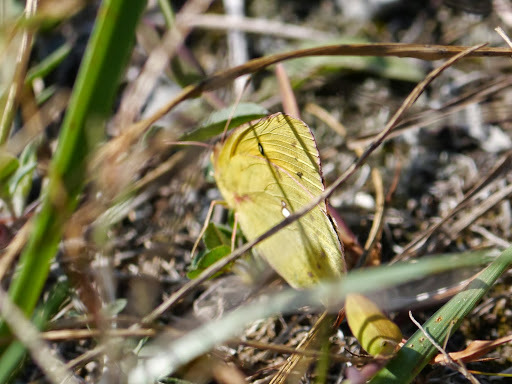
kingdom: Animalia
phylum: Arthropoda
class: Insecta
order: Lepidoptera
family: Pieridae
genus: Colias
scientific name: Colias eurytheme
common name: Alfalfa butterfly
